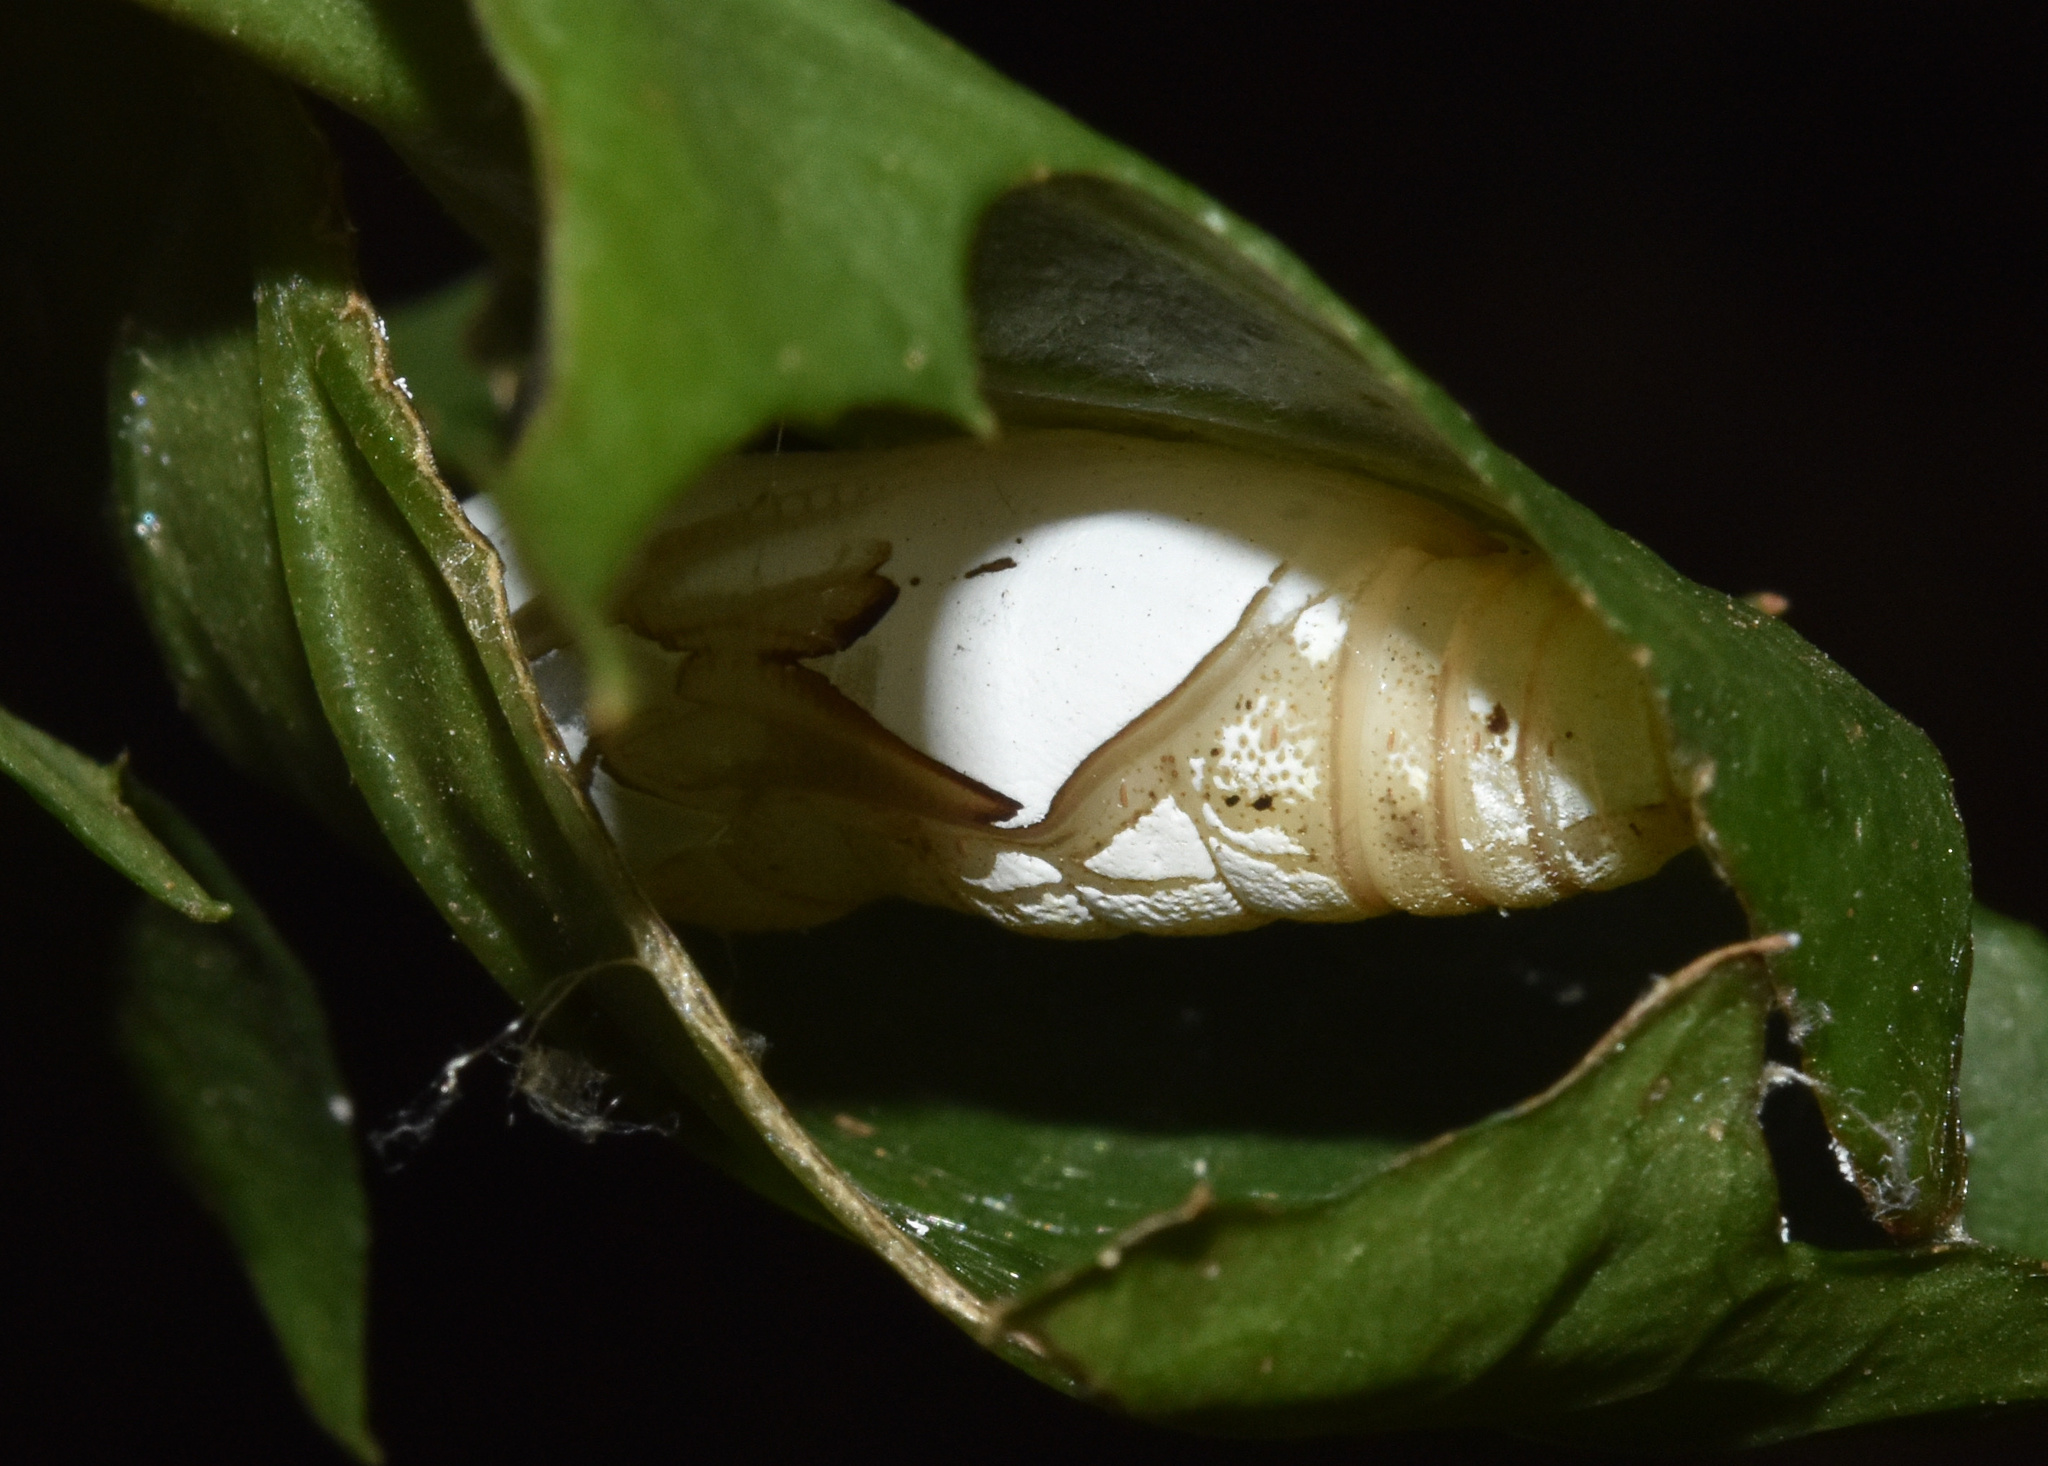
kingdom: Animalia
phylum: Arthropoda
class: Insecta
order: Lepidoptera
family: Hesperiidae
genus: Tagiades
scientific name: Tagiades flesus
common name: Clouded flat
